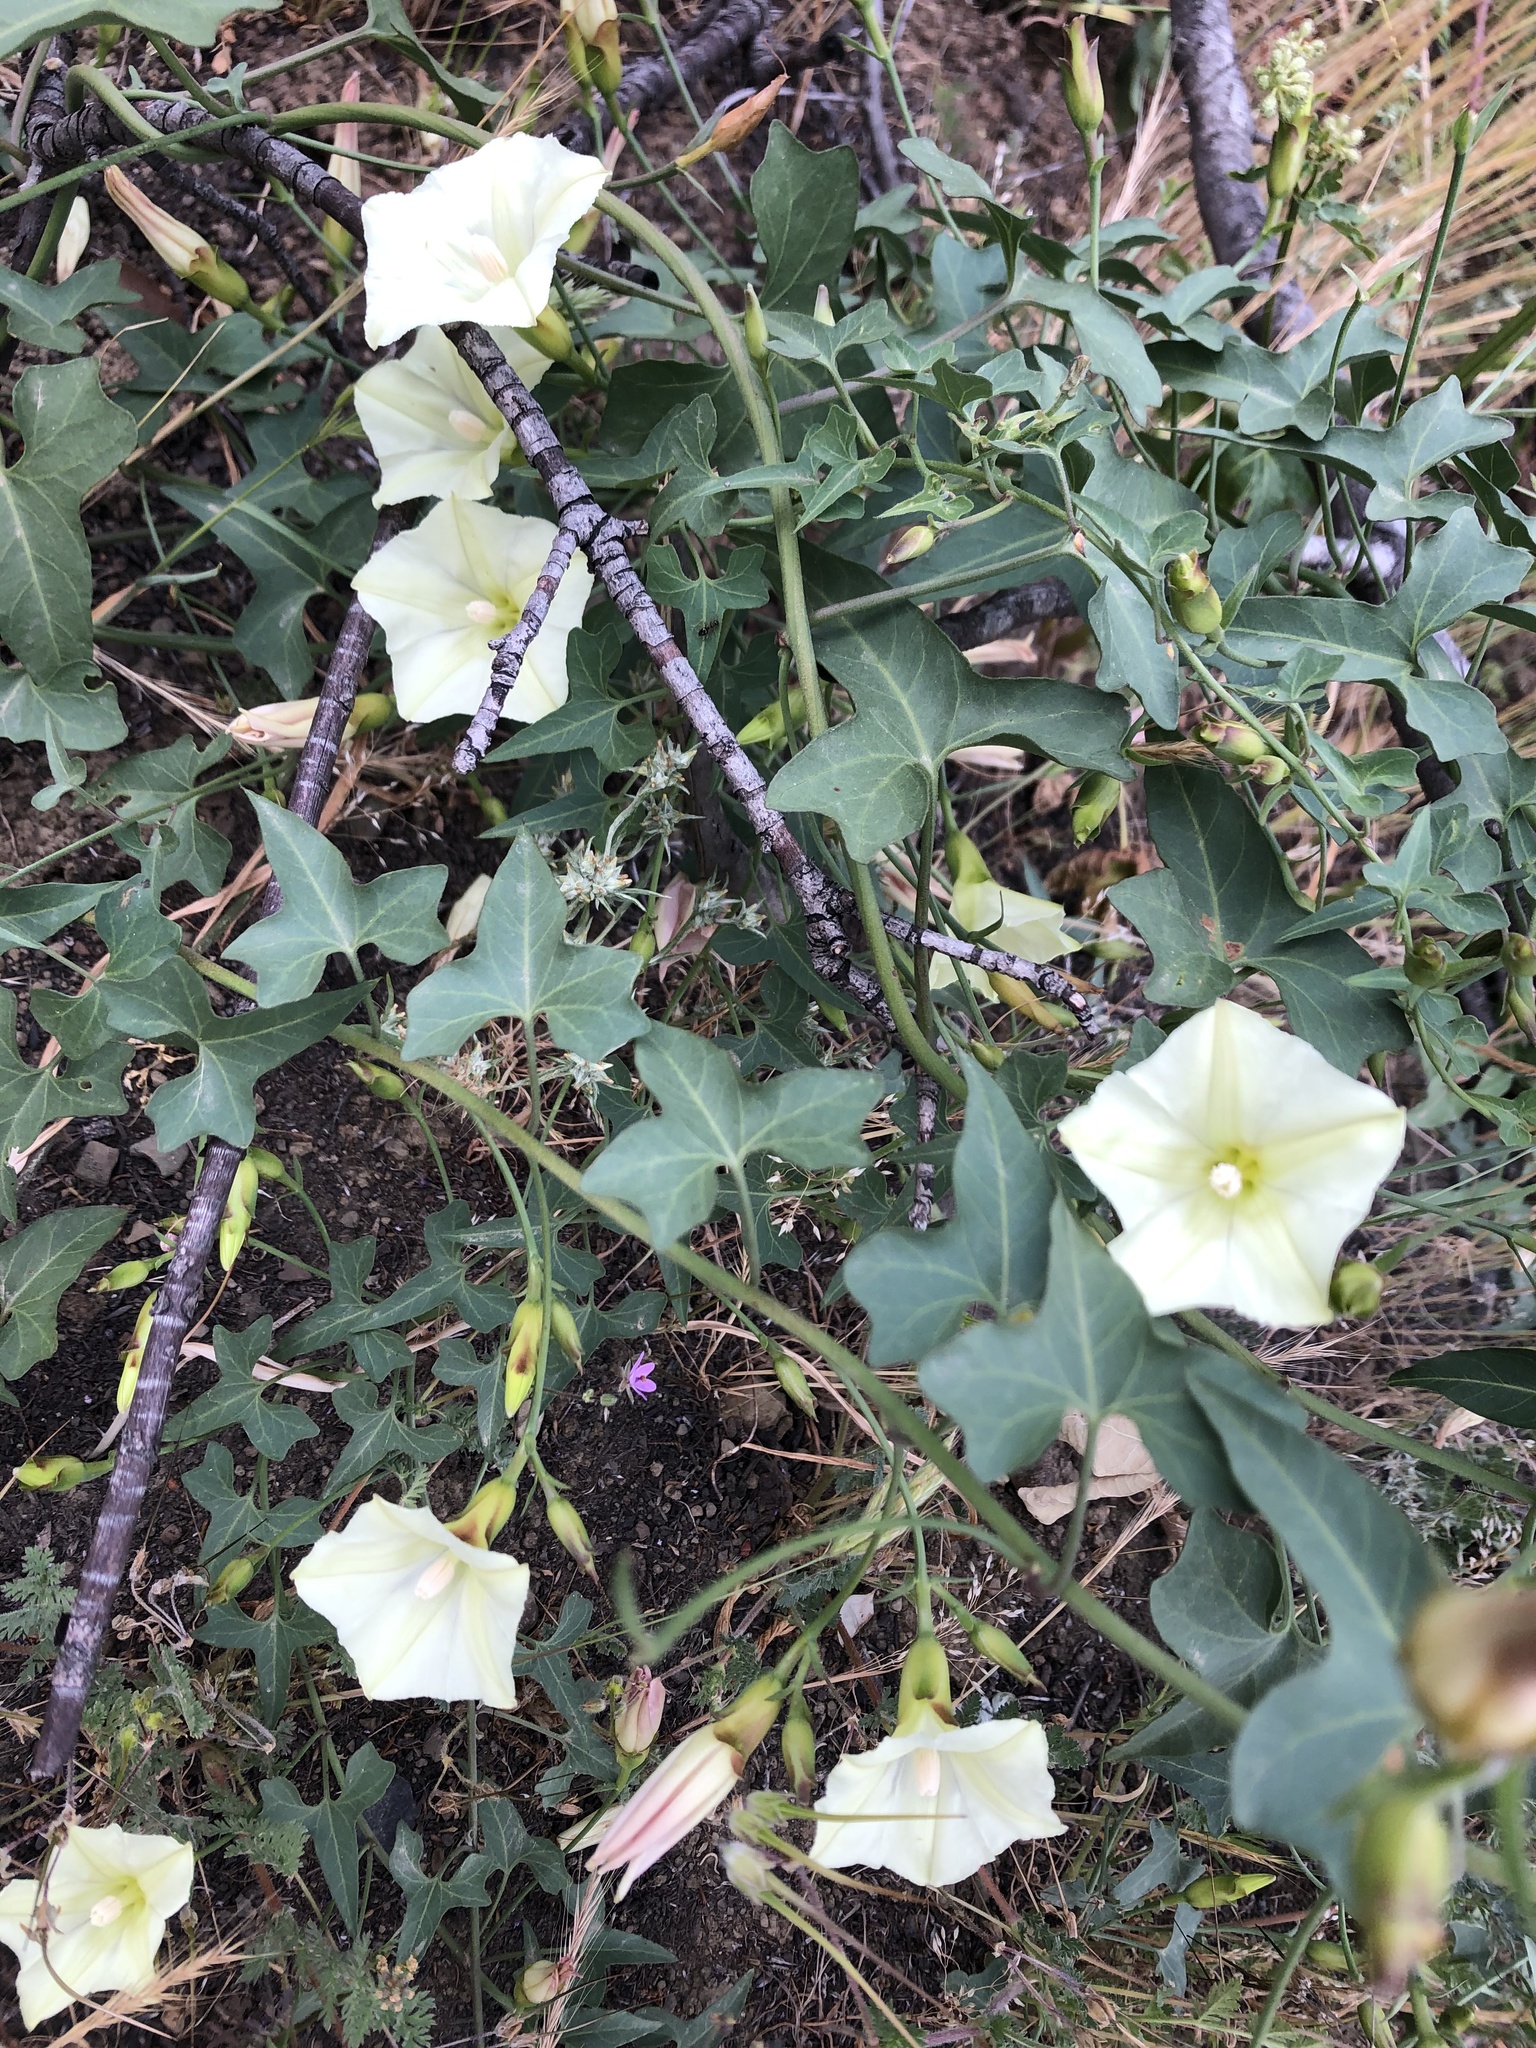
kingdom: Plantae
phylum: Tracheophyta
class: Magnoliopsida
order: Solanales
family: Convolvulaceae
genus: Calystegia
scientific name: Calystegia occidentalis
